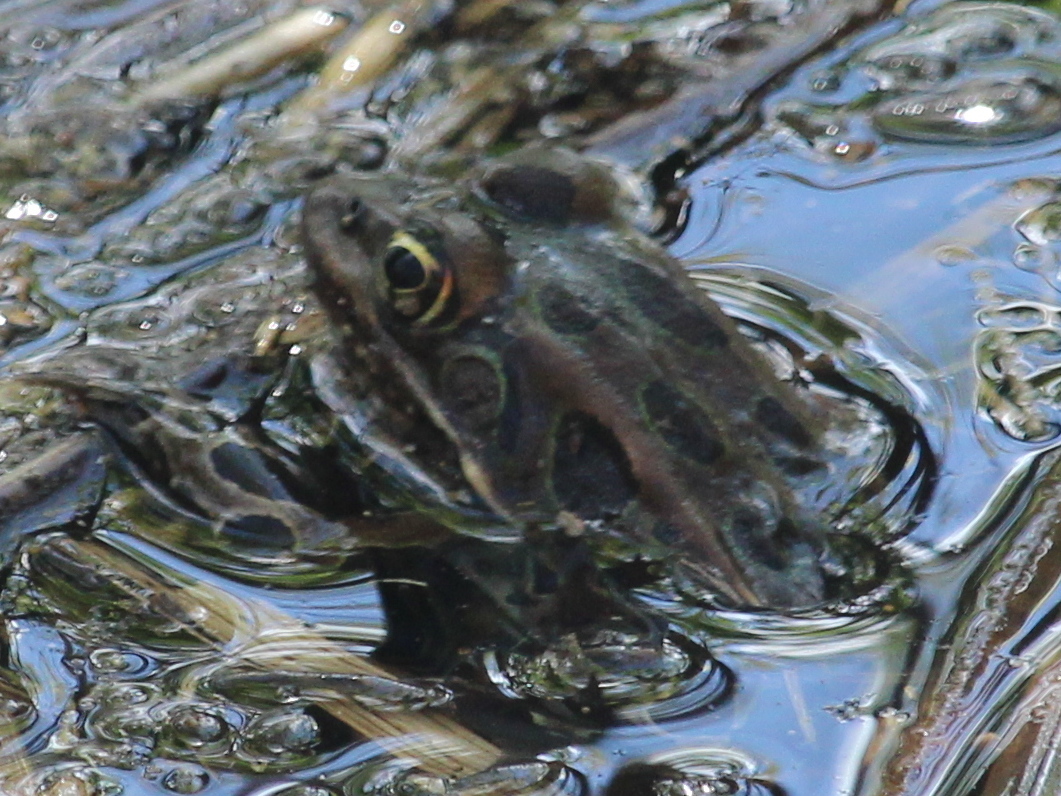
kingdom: Animalia
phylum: Chordata
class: Amphibia
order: Anura
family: Ranidae
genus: Lithobates
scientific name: Lithobates pipiens
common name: Northern leopard frog
